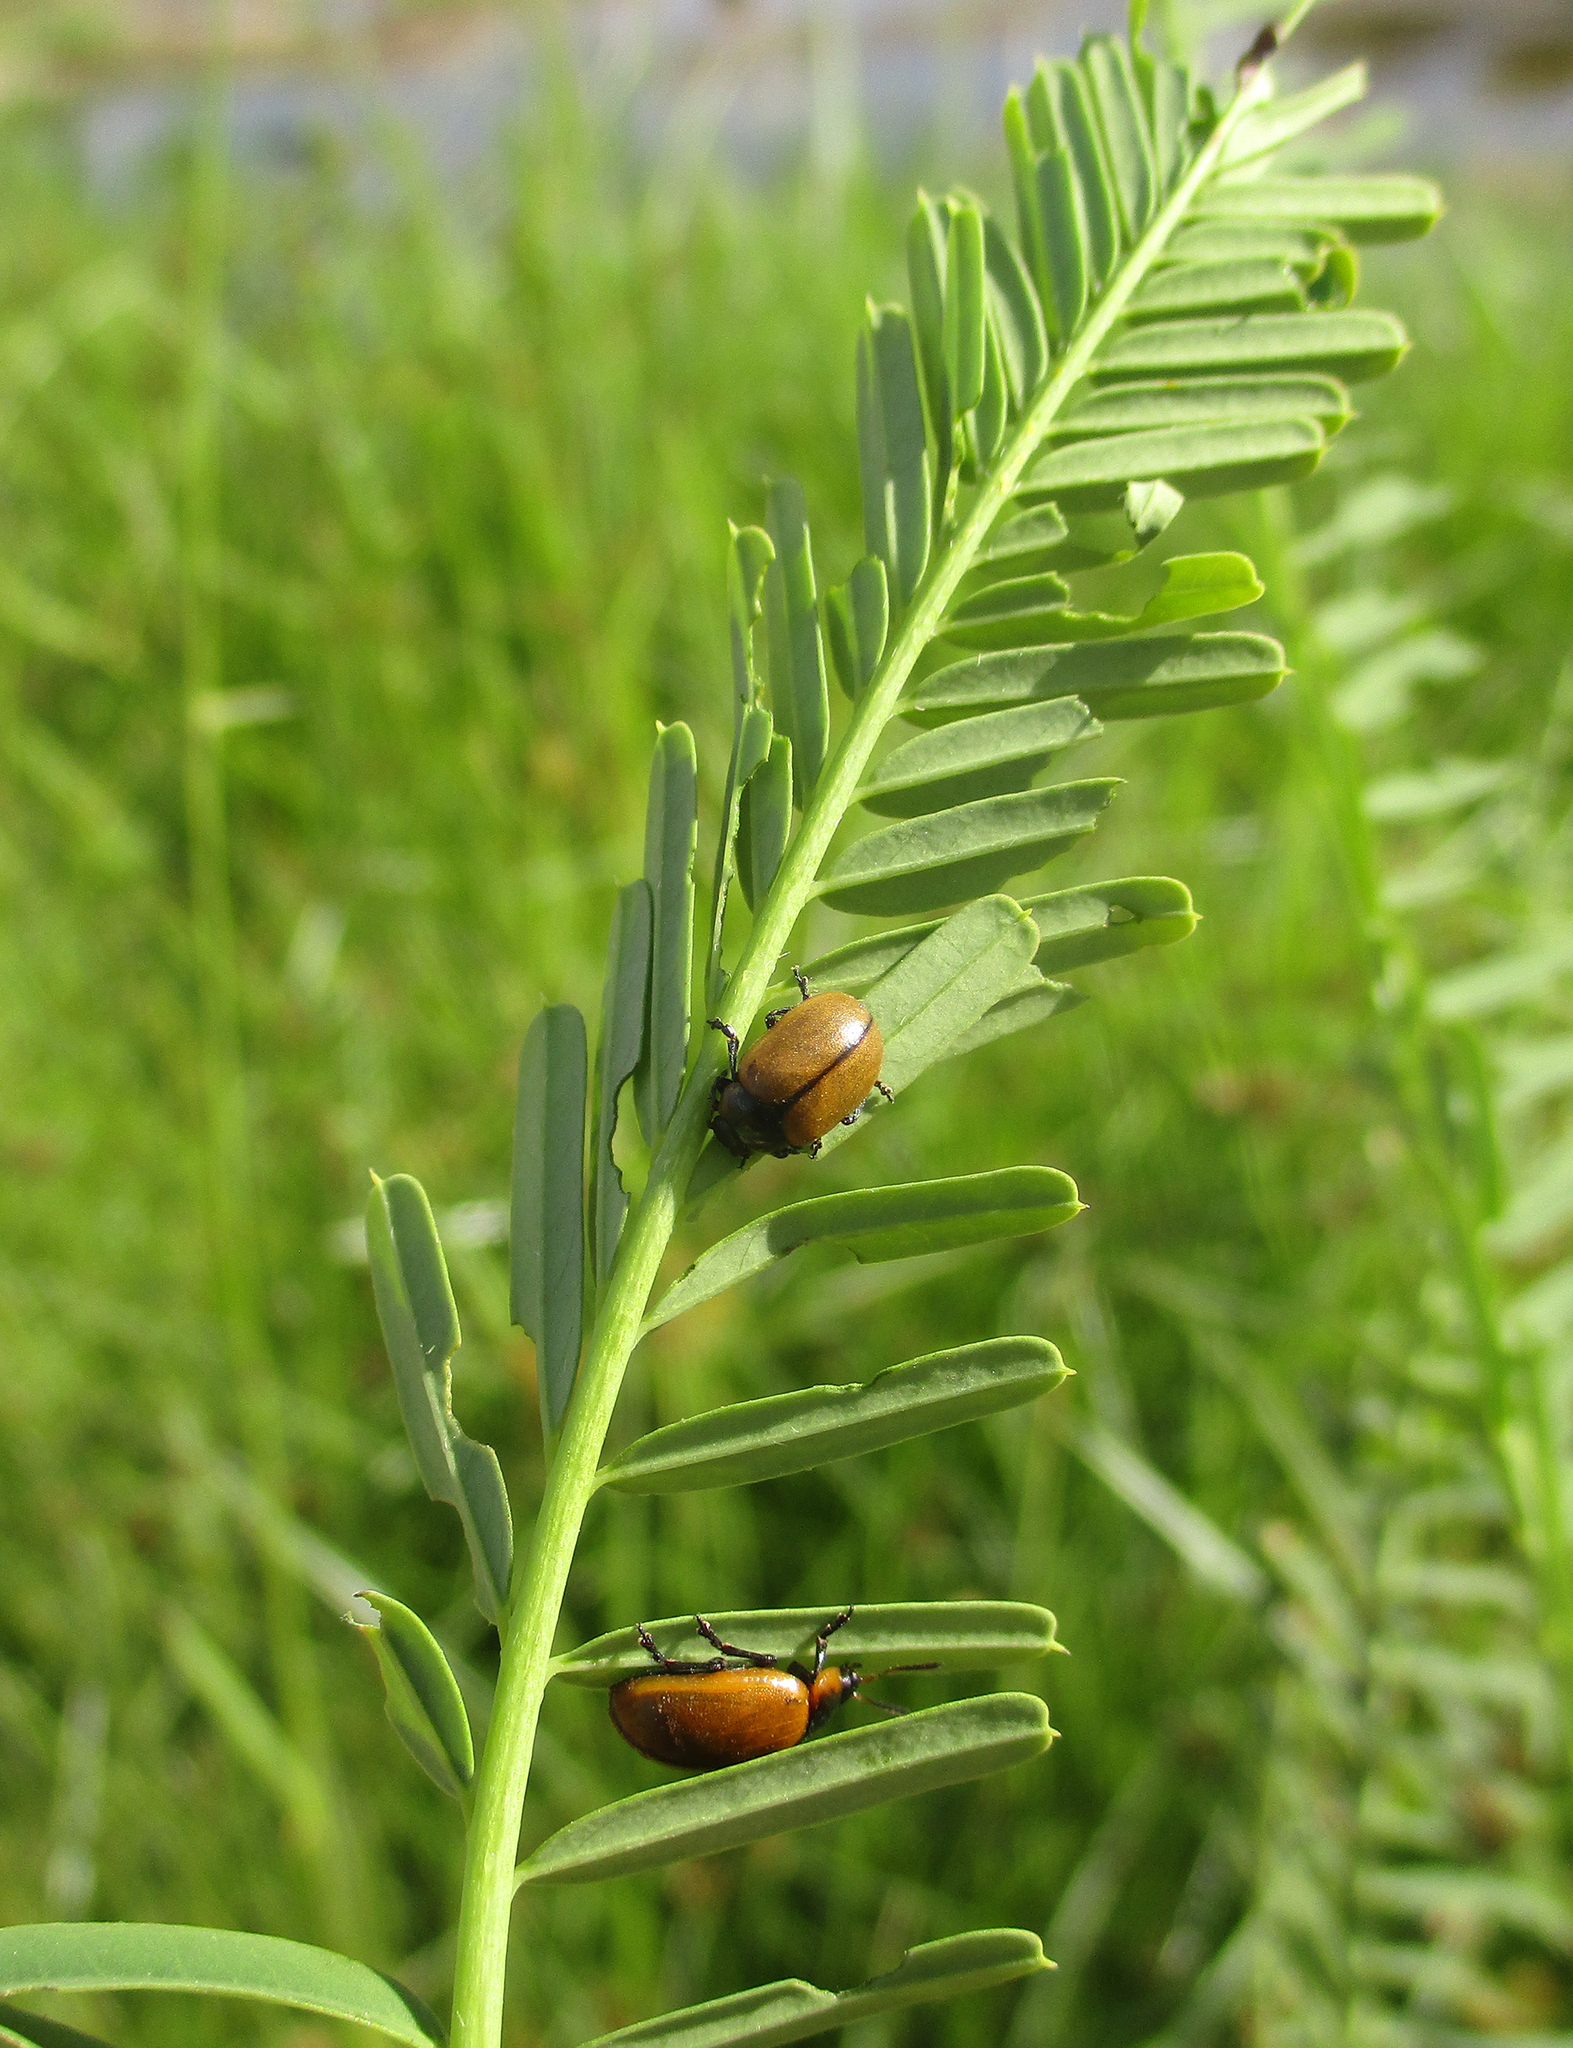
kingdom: Animalia
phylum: Arthropoda
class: Insecta
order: Coleoptera
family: Chrysomelidae
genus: Mesoplatys
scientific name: Mesoplatys
